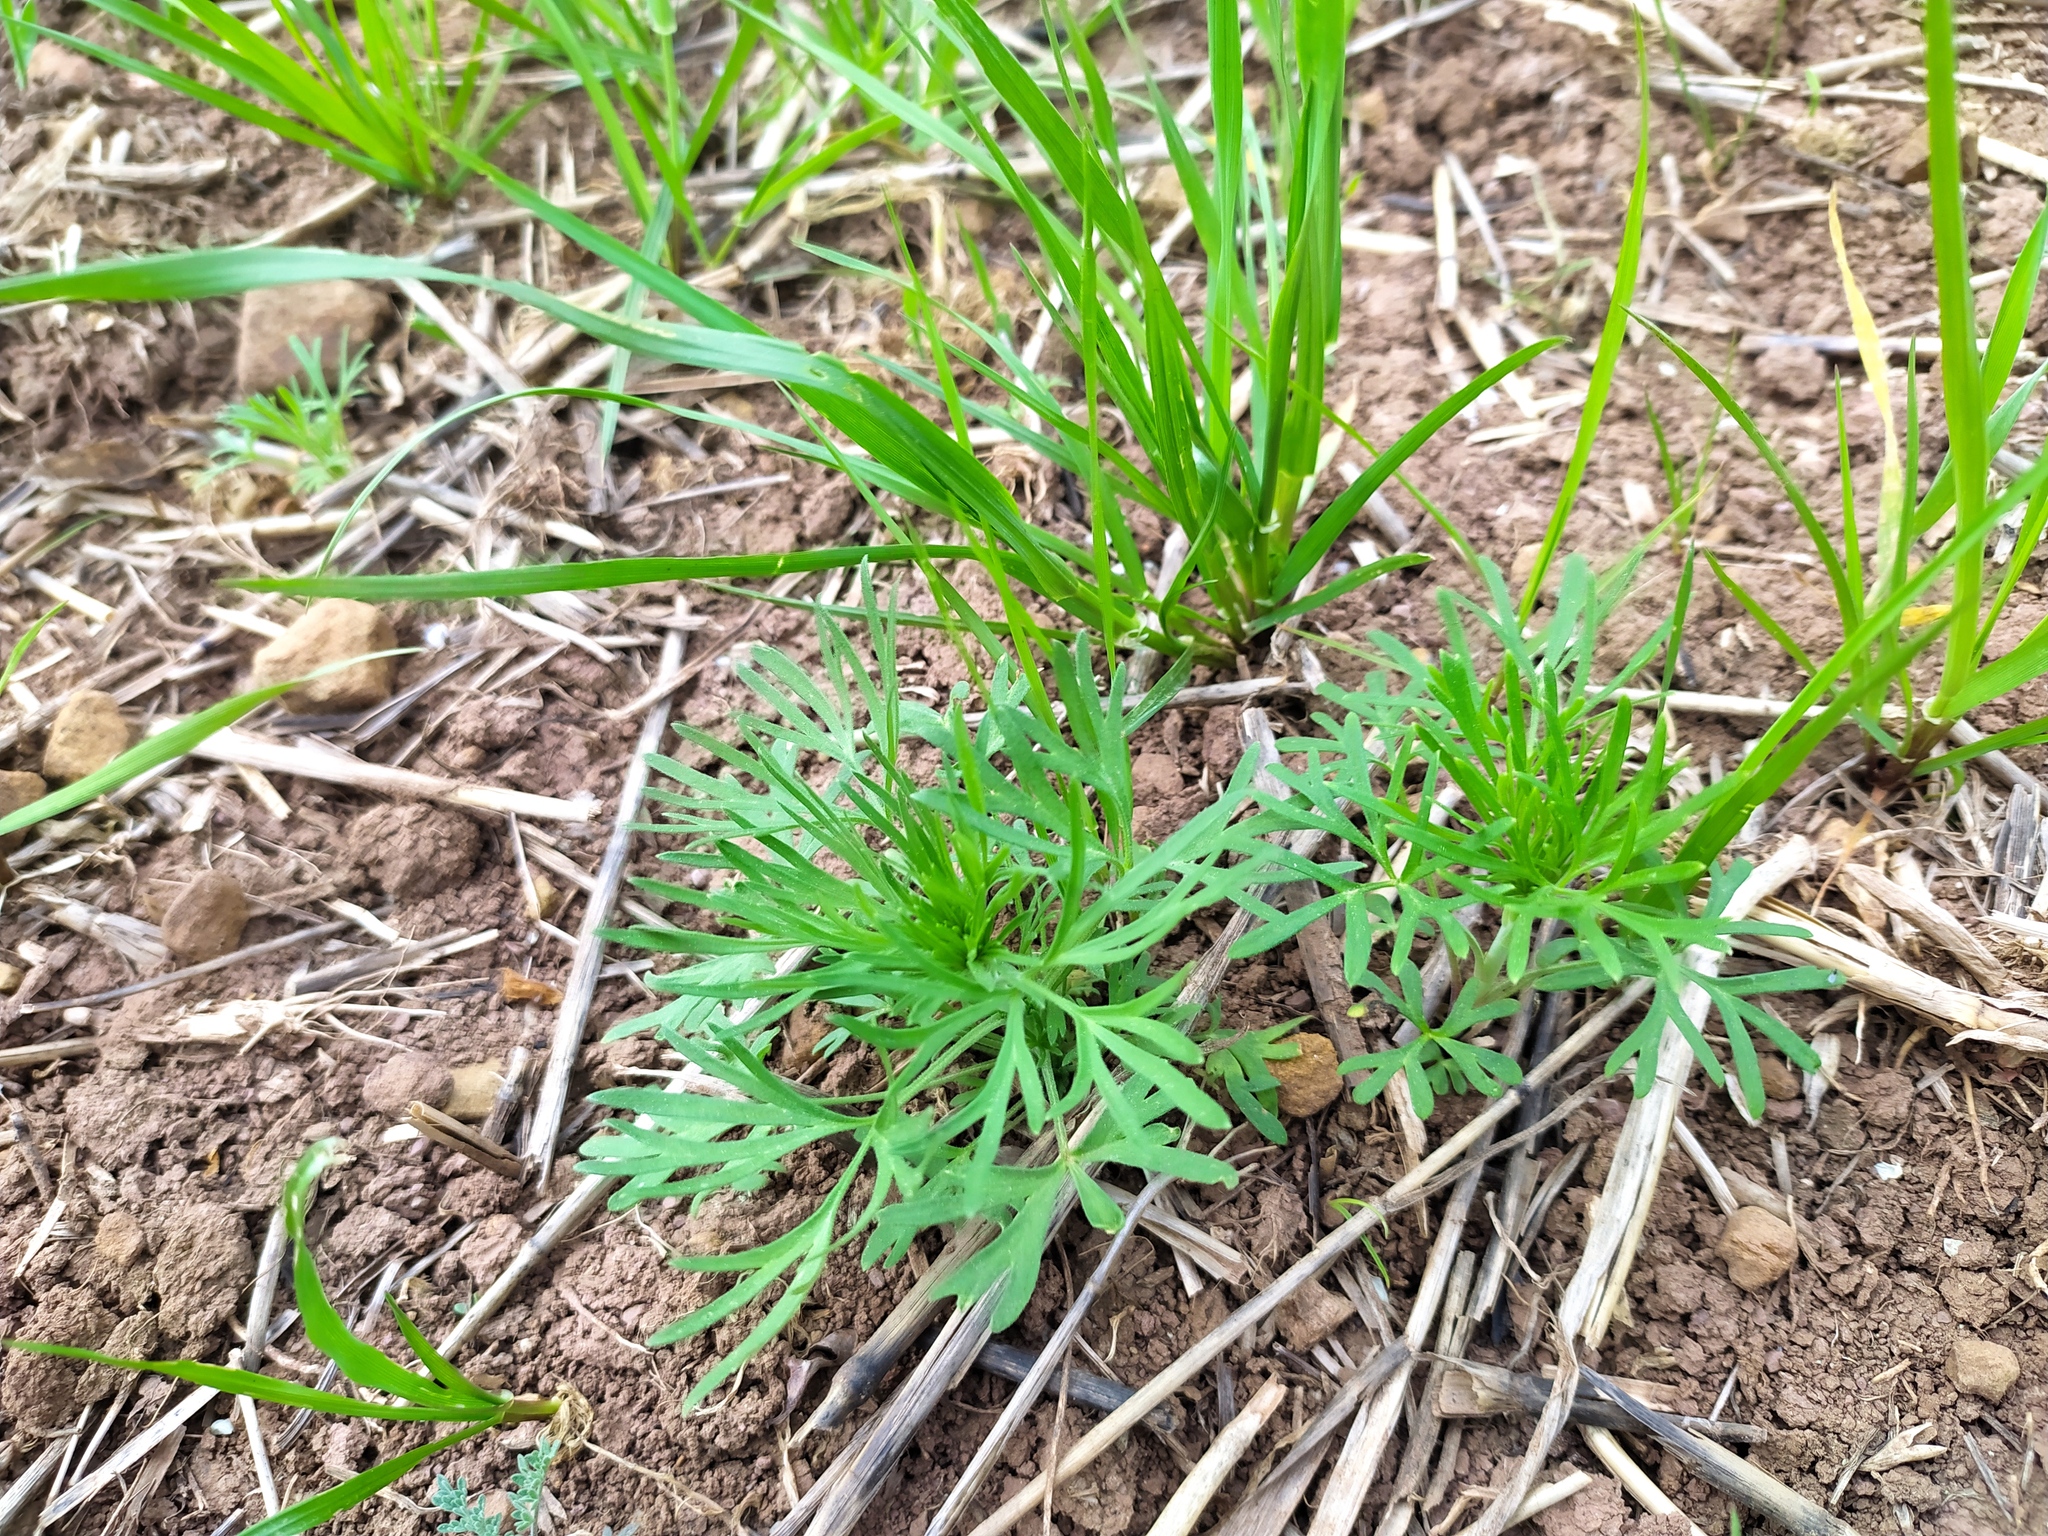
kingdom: Plantae
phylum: Tracheophyta
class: Magnoliopsida
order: Ranunculales
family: Ranunculaceae
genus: Delphinium
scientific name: Delphinium consolida
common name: Branching larkspur
